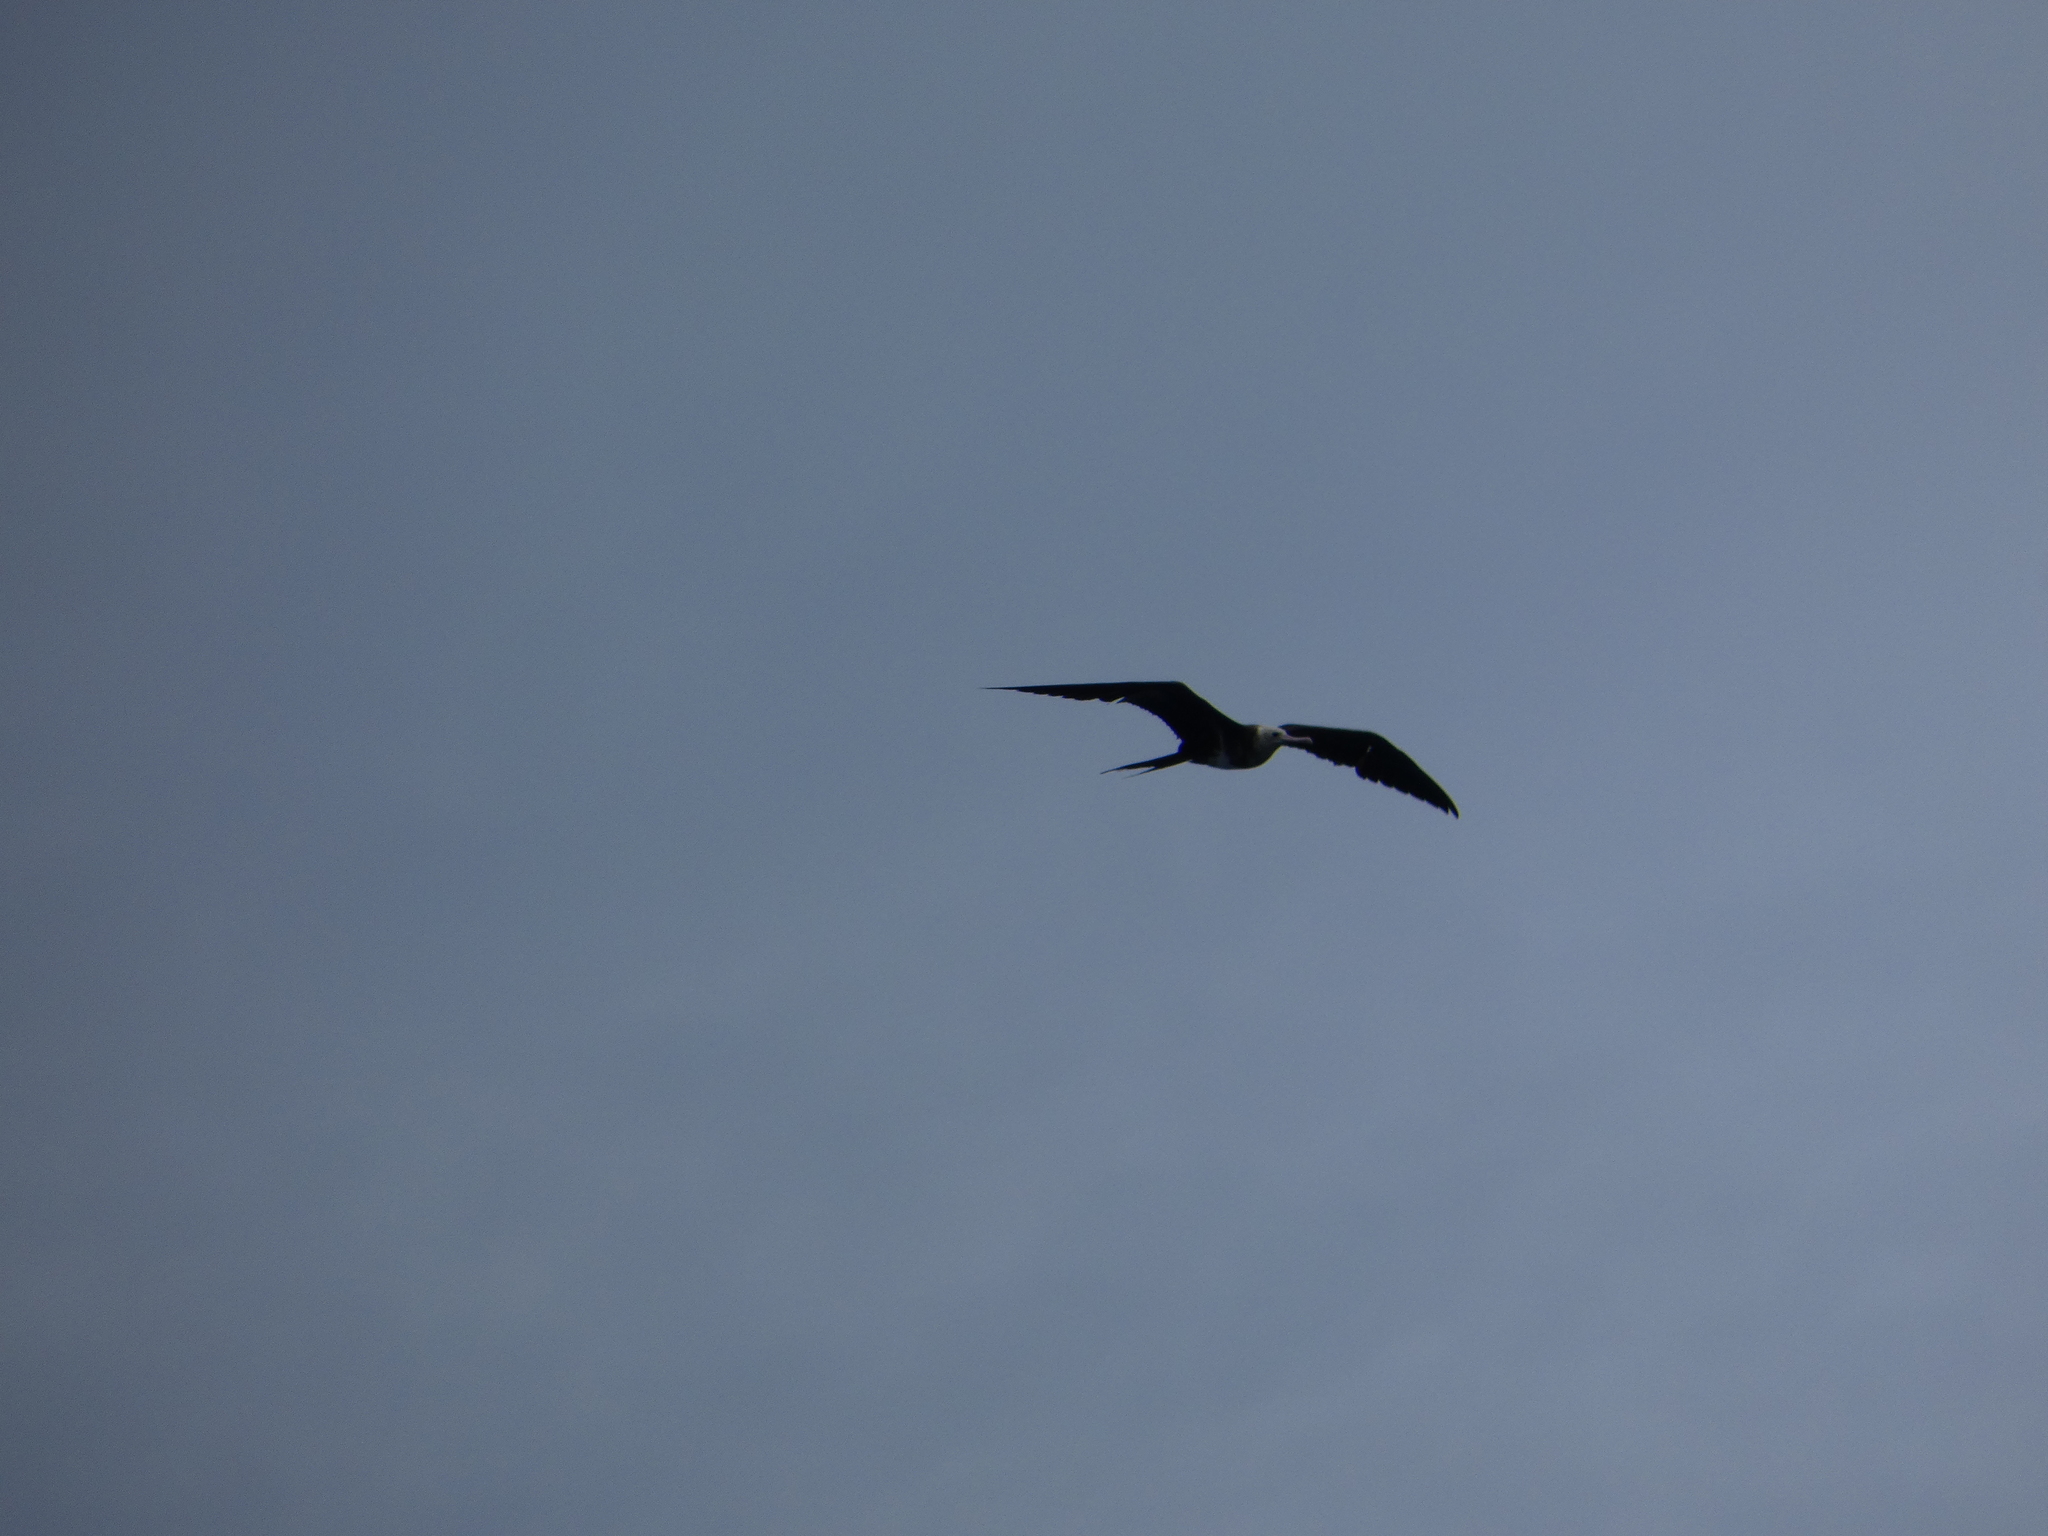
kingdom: Animalia
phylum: Chordata
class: Aves
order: Suliformes
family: Fregatidae
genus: Fregata
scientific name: Fregata ariel
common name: Lesser frigatebird
